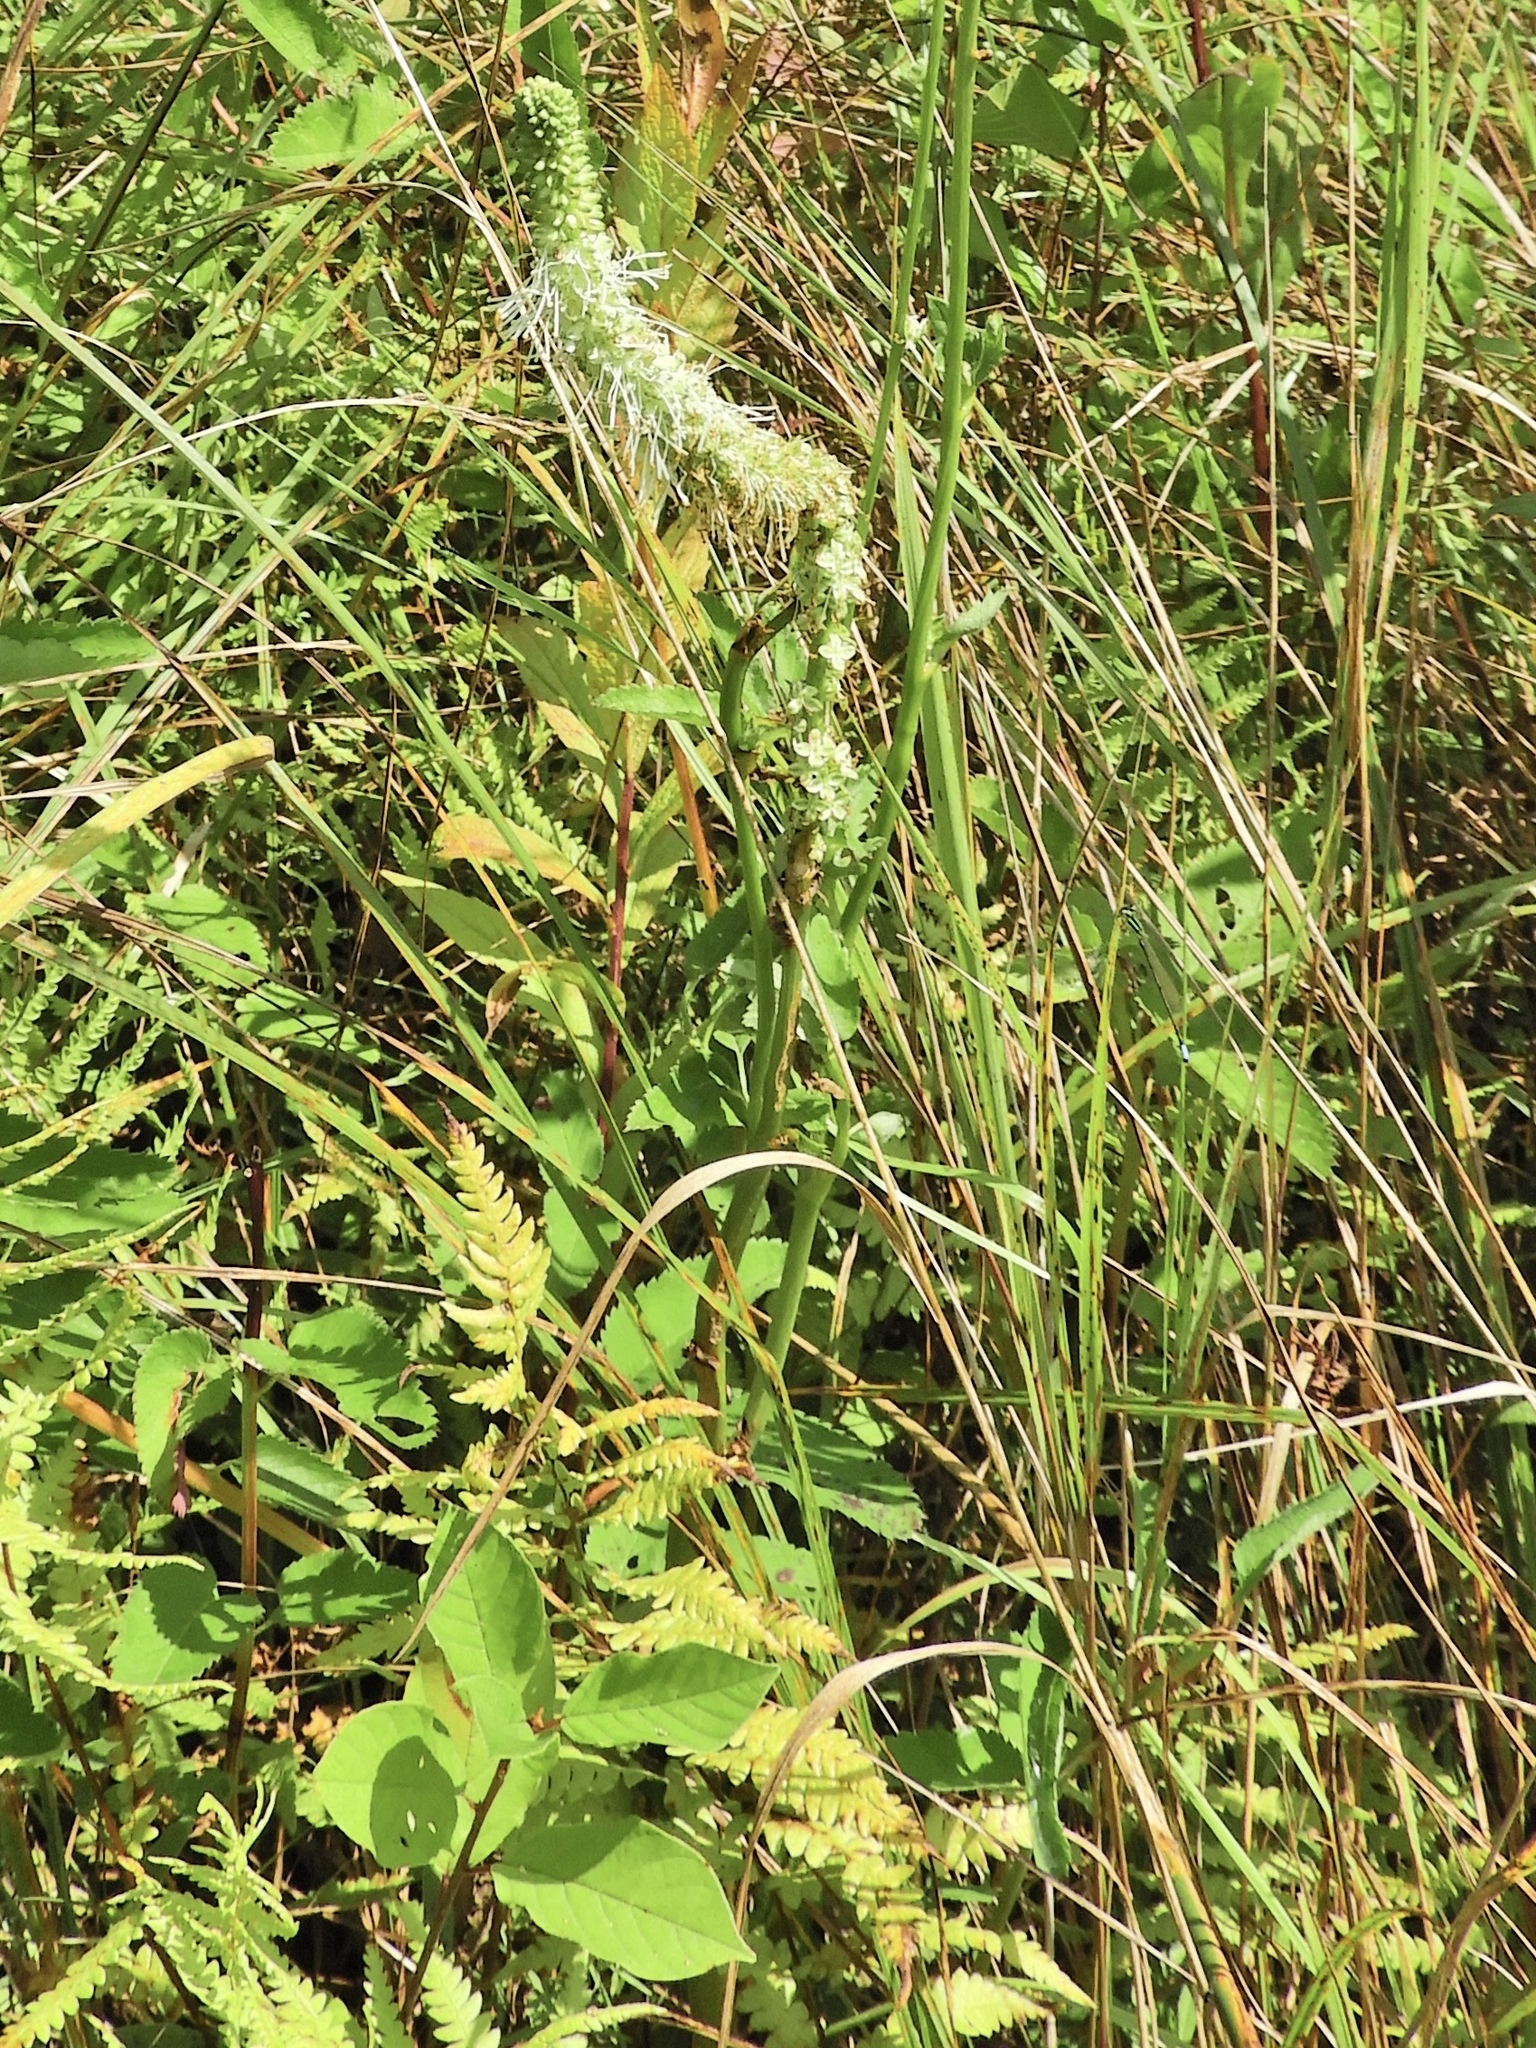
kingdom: Plantae
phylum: Tracheophyta
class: Magnoliopsida
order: Rosales
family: Rosaceae
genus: Sanguisorba
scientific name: Sanguisorba canadensis
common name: White burnet
